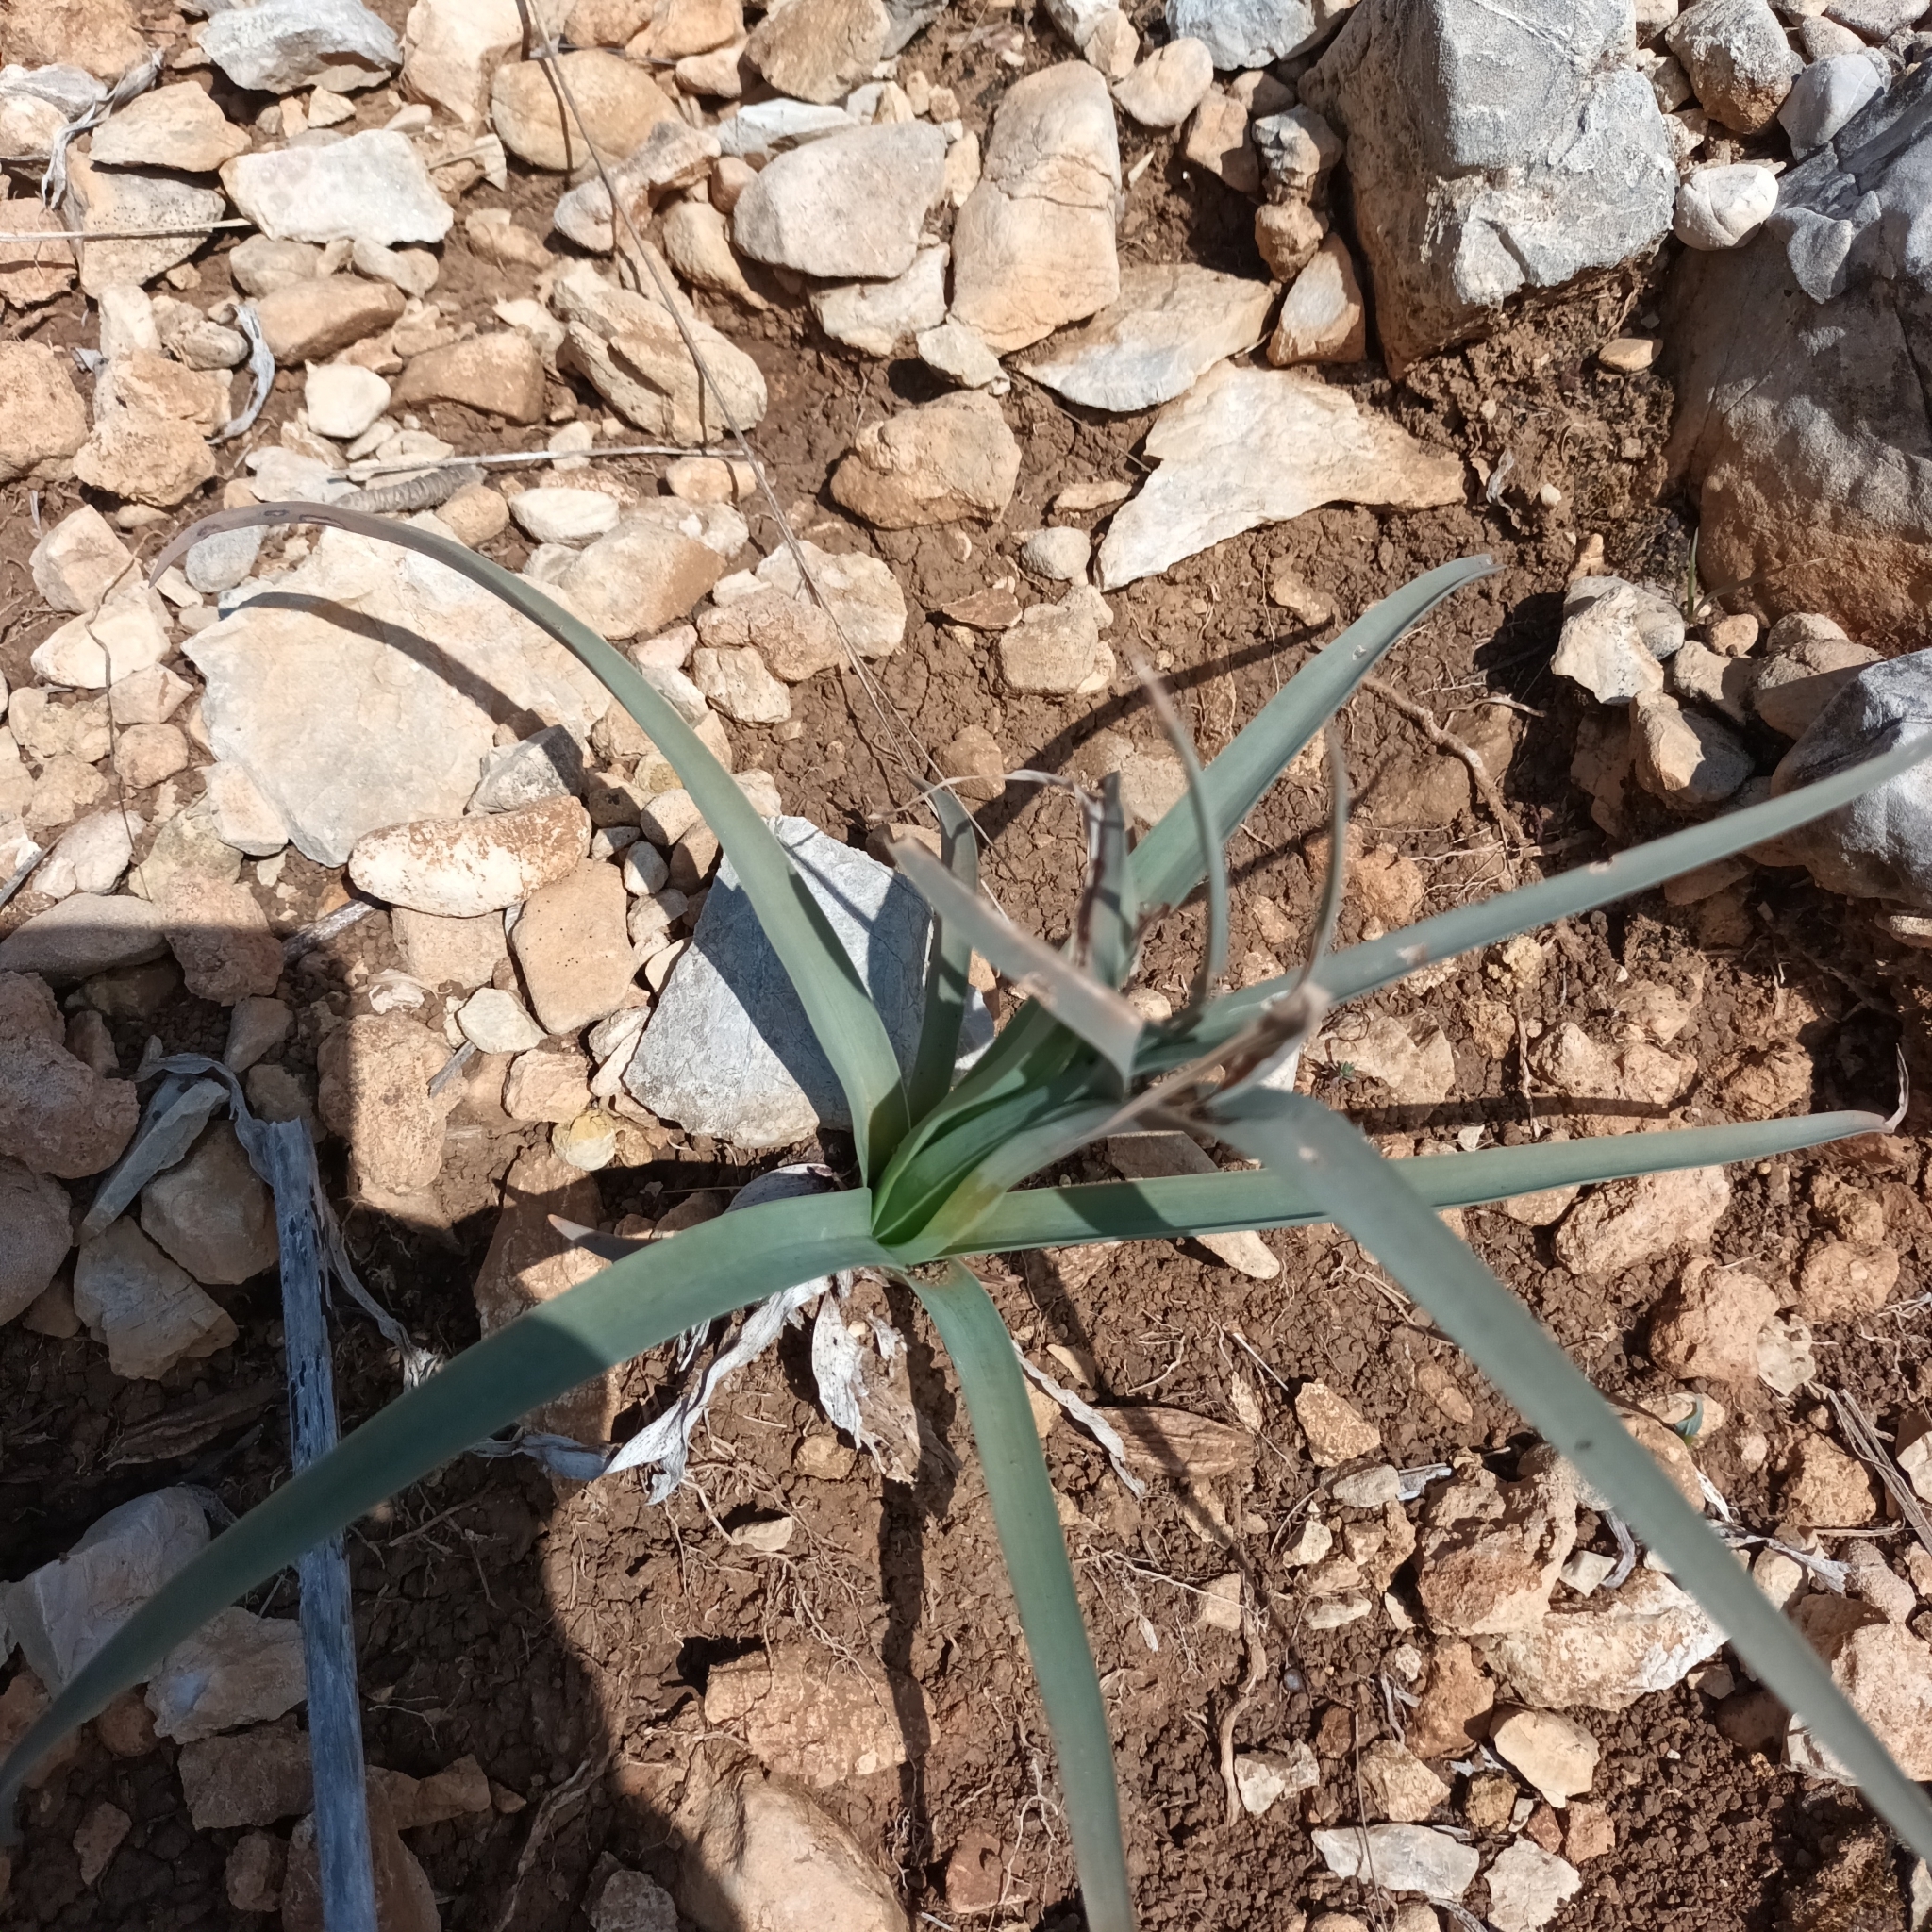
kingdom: Plantae
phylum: Tracheophyta
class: Liliopsida
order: Asparagales
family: Asphodelaceae
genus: Asphodelus
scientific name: Asphodelus ramosus
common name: Silverrod
